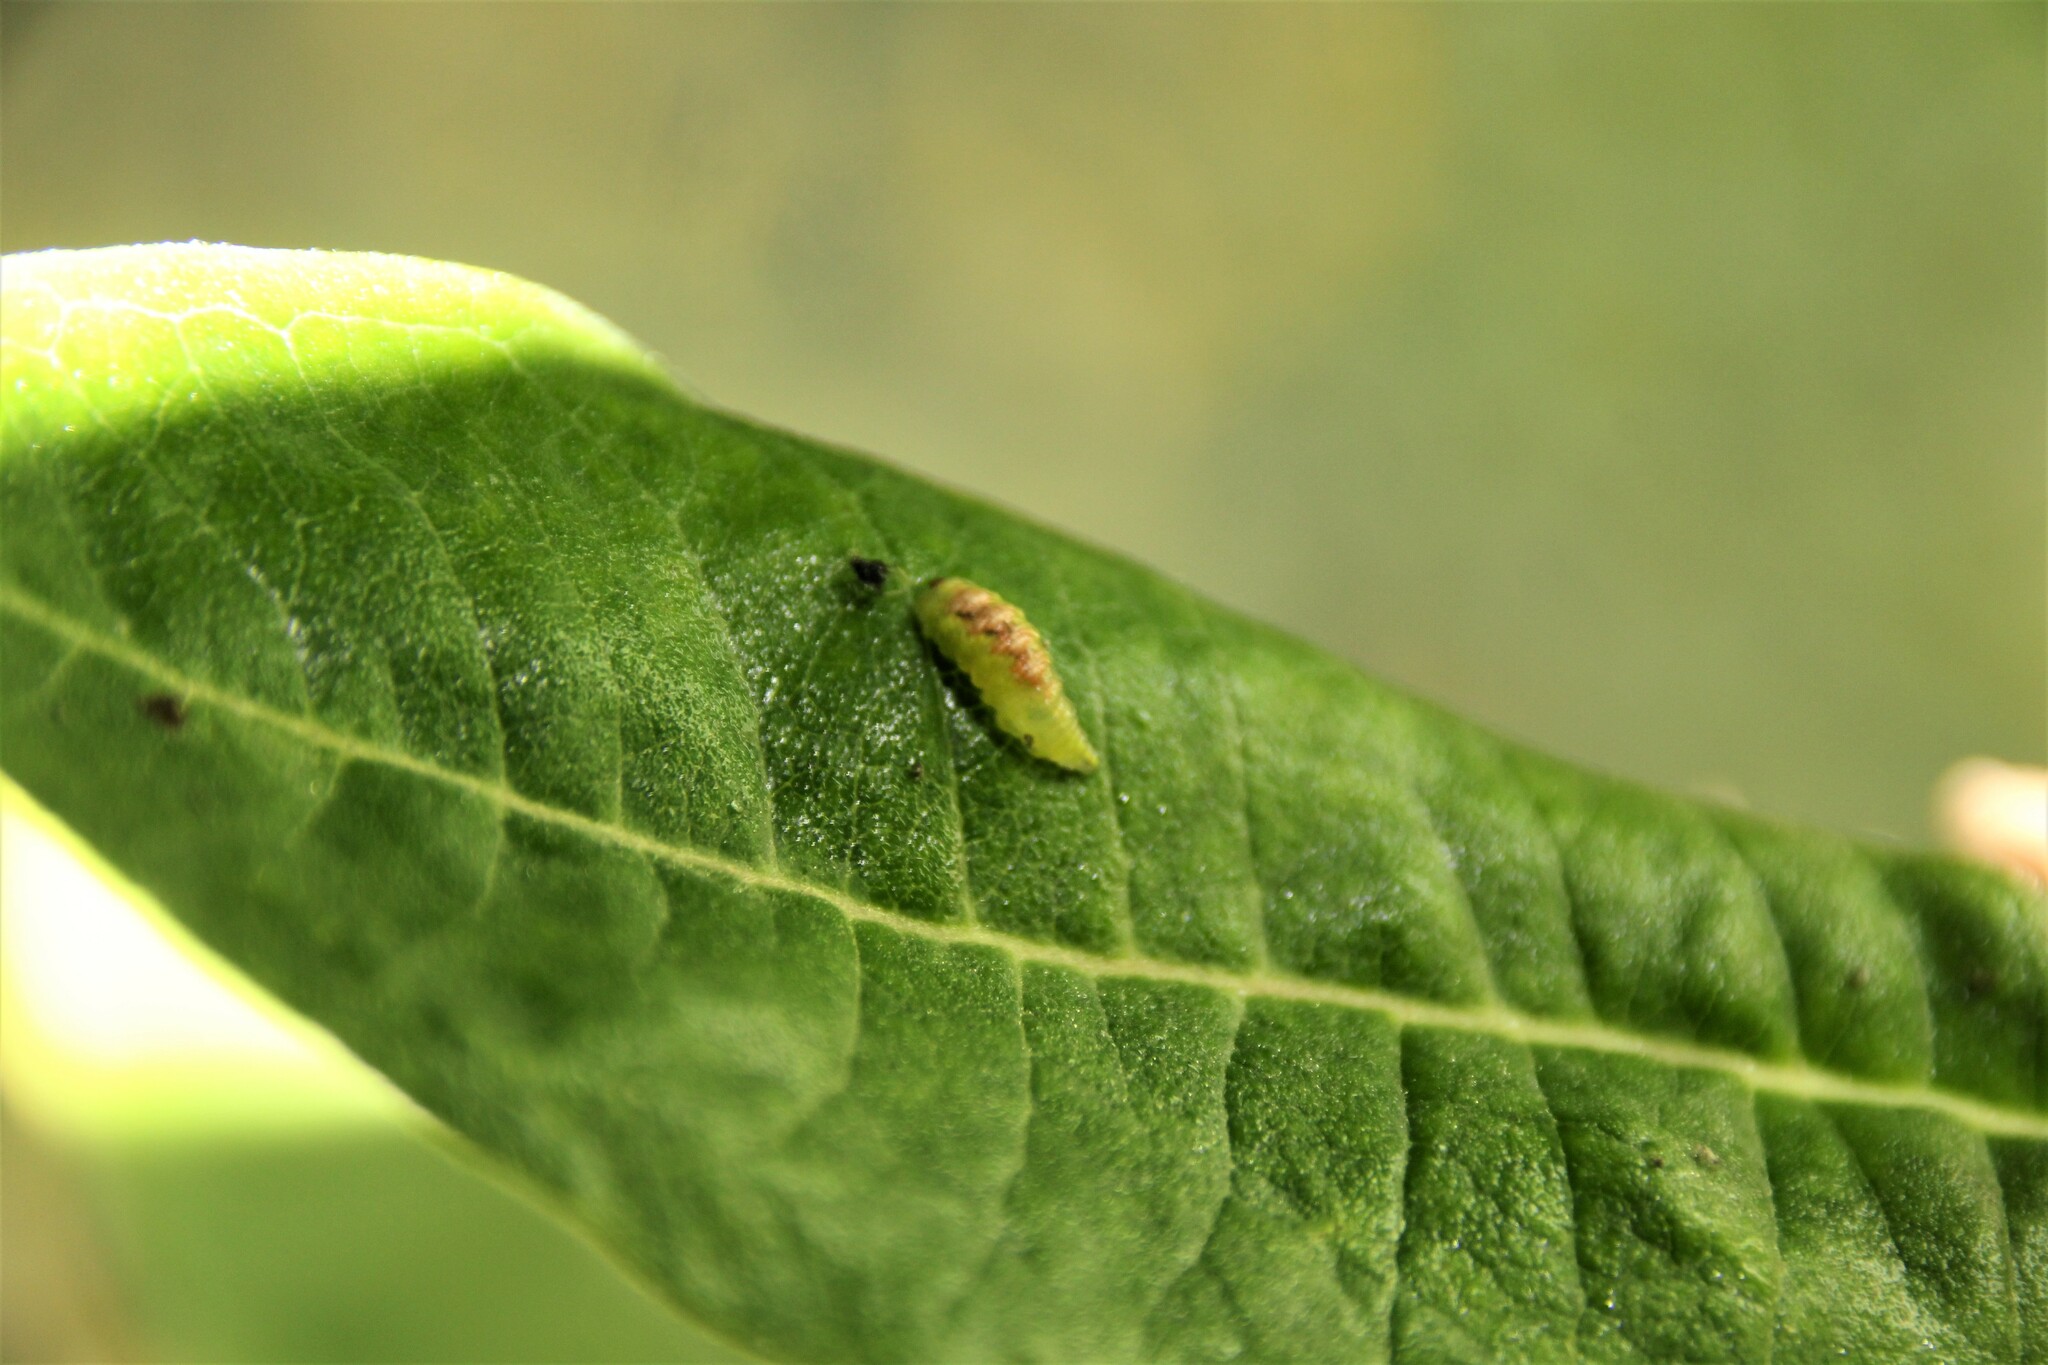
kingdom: Animalia
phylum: Arthropoda
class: Insecta
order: Diptera
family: Syrphidae
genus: Eupeodes
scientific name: Eupeodes pomus
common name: Short-tailed aphideater
